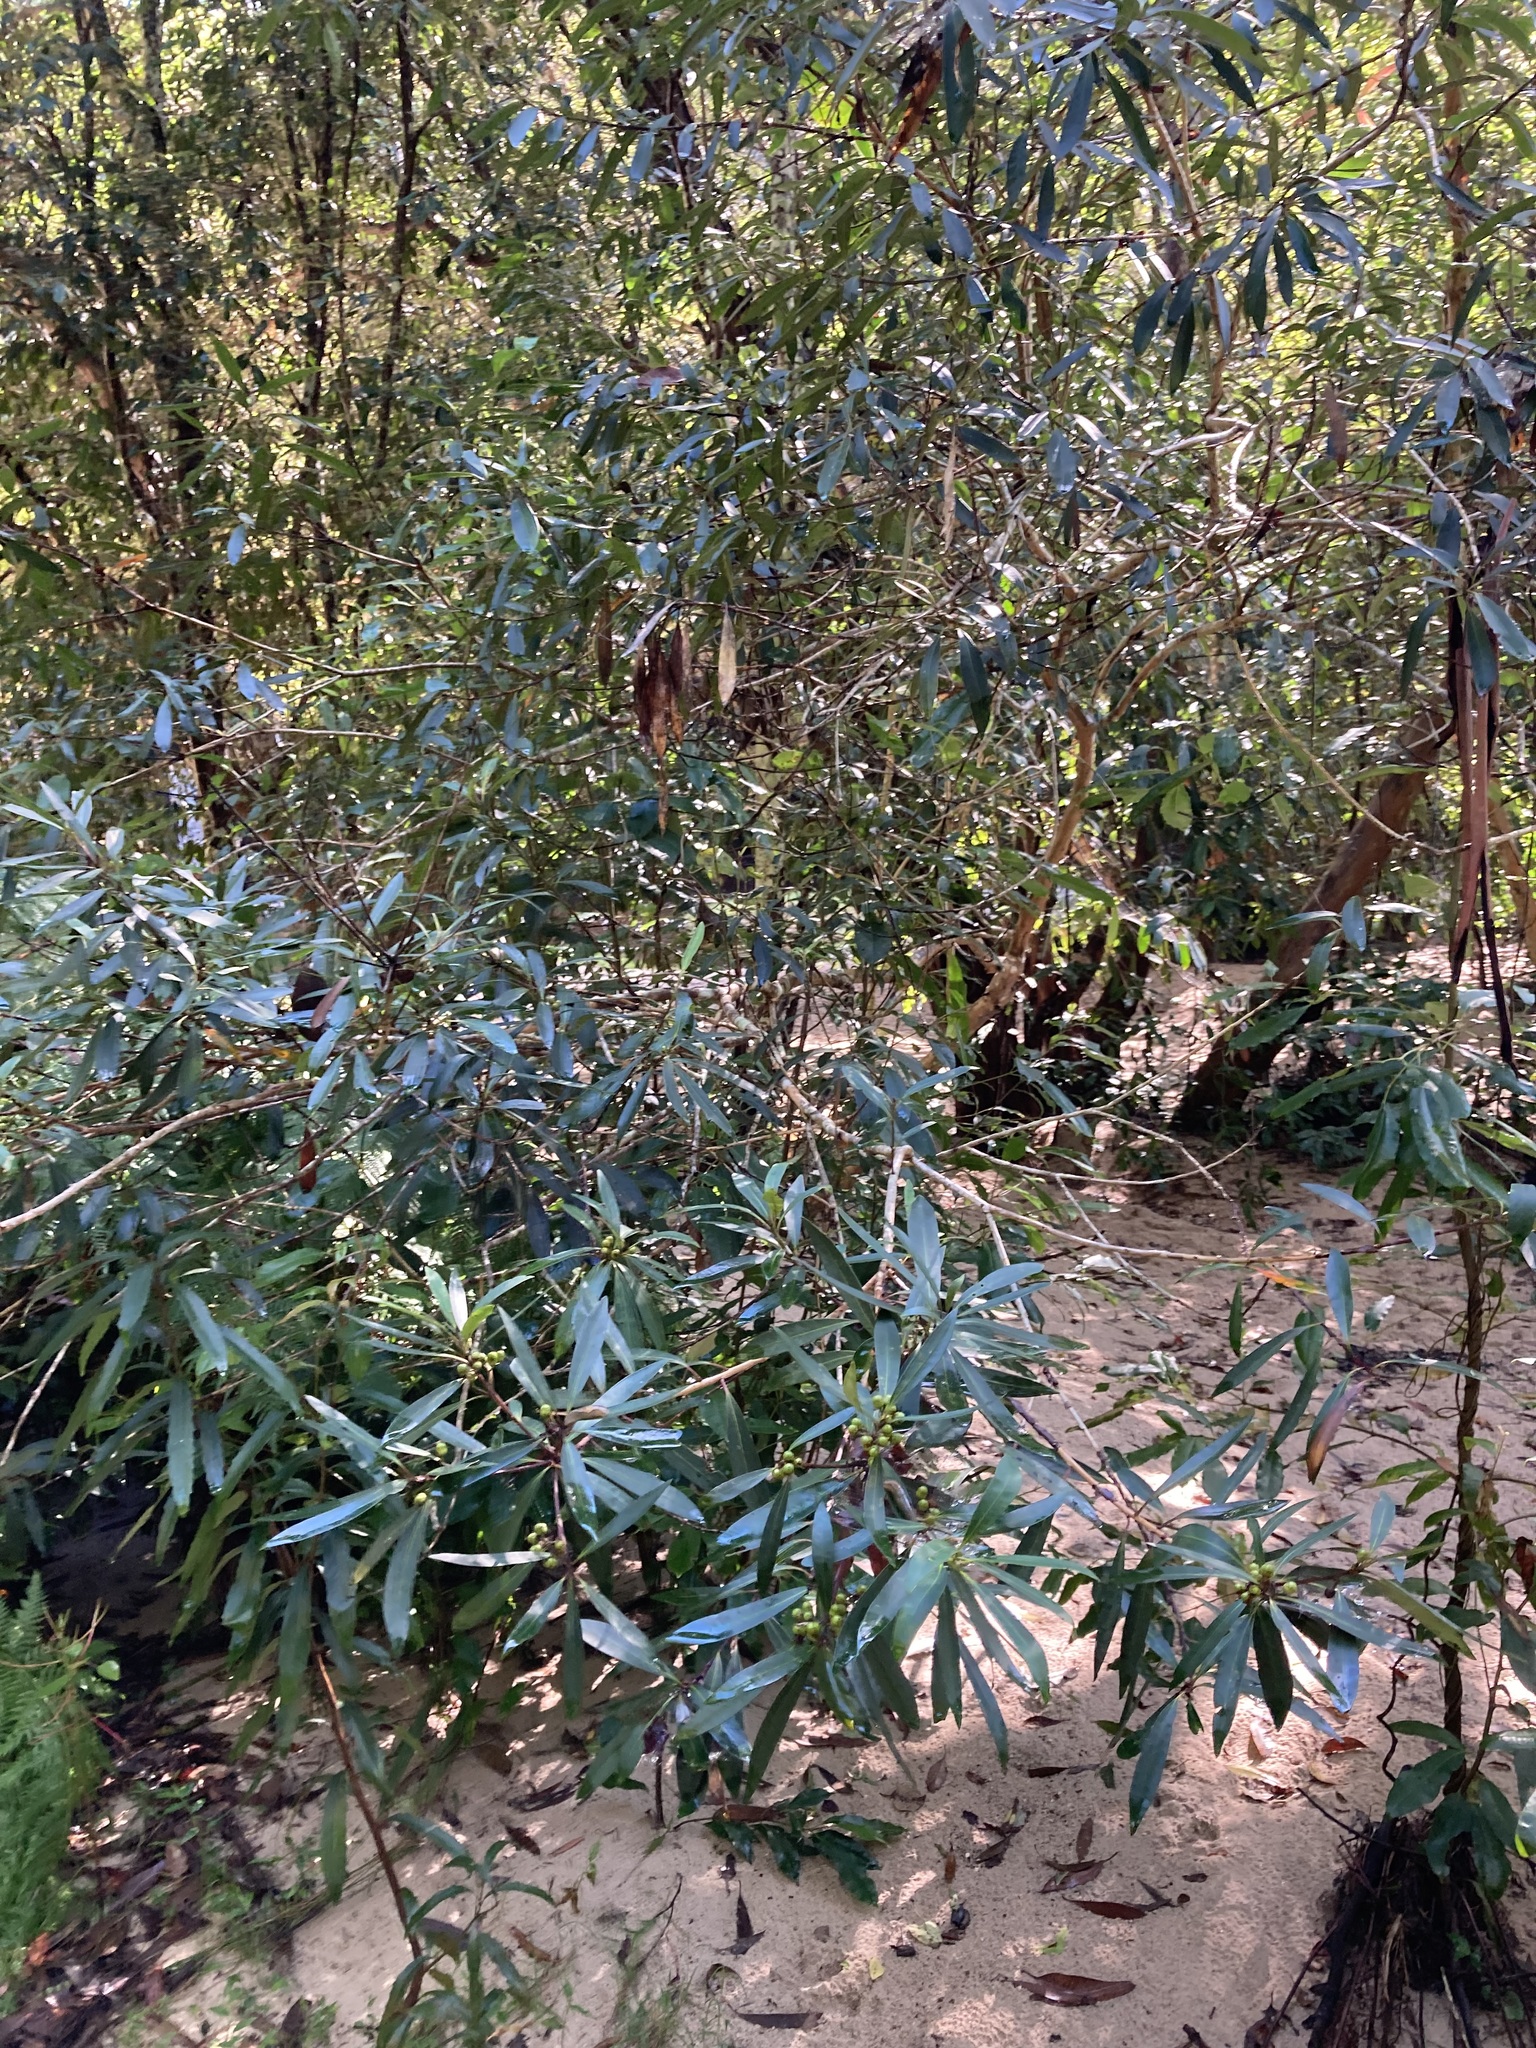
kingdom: Plantae
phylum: Tracheophyta
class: Magnoliopsida
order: Myrtales
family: Myrtaceae
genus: Tristaniopsis
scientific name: Tristaniopsis laurina
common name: Water-gum
